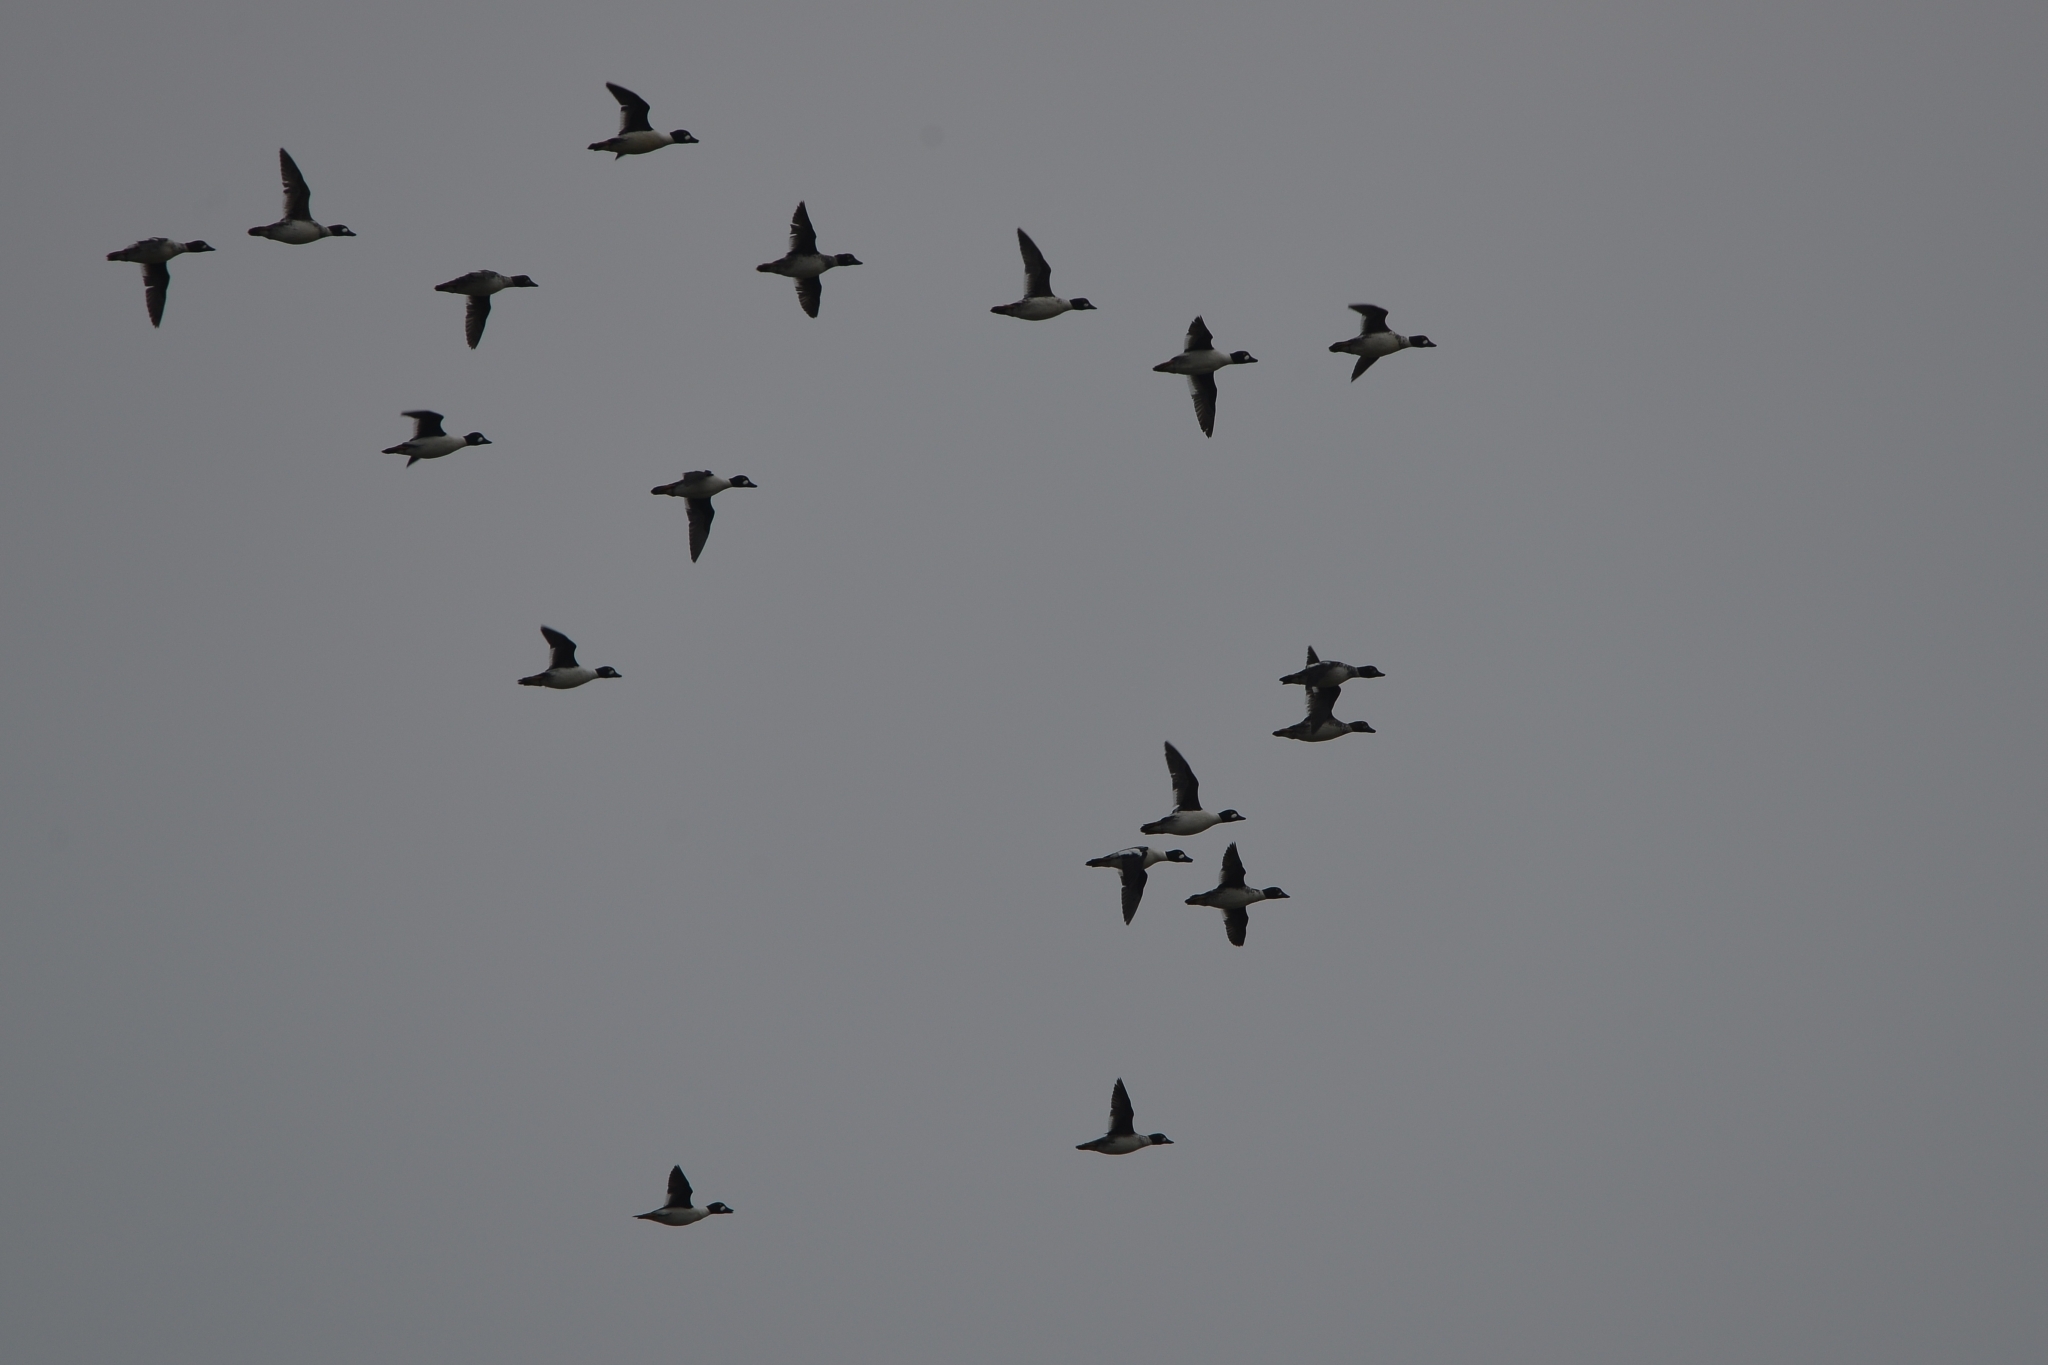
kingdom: Animalia
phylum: Chordata
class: Aves
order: Anseriformes
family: Anatidae
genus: Bucephala
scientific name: Bucephala clangula
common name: Common goldeneye
